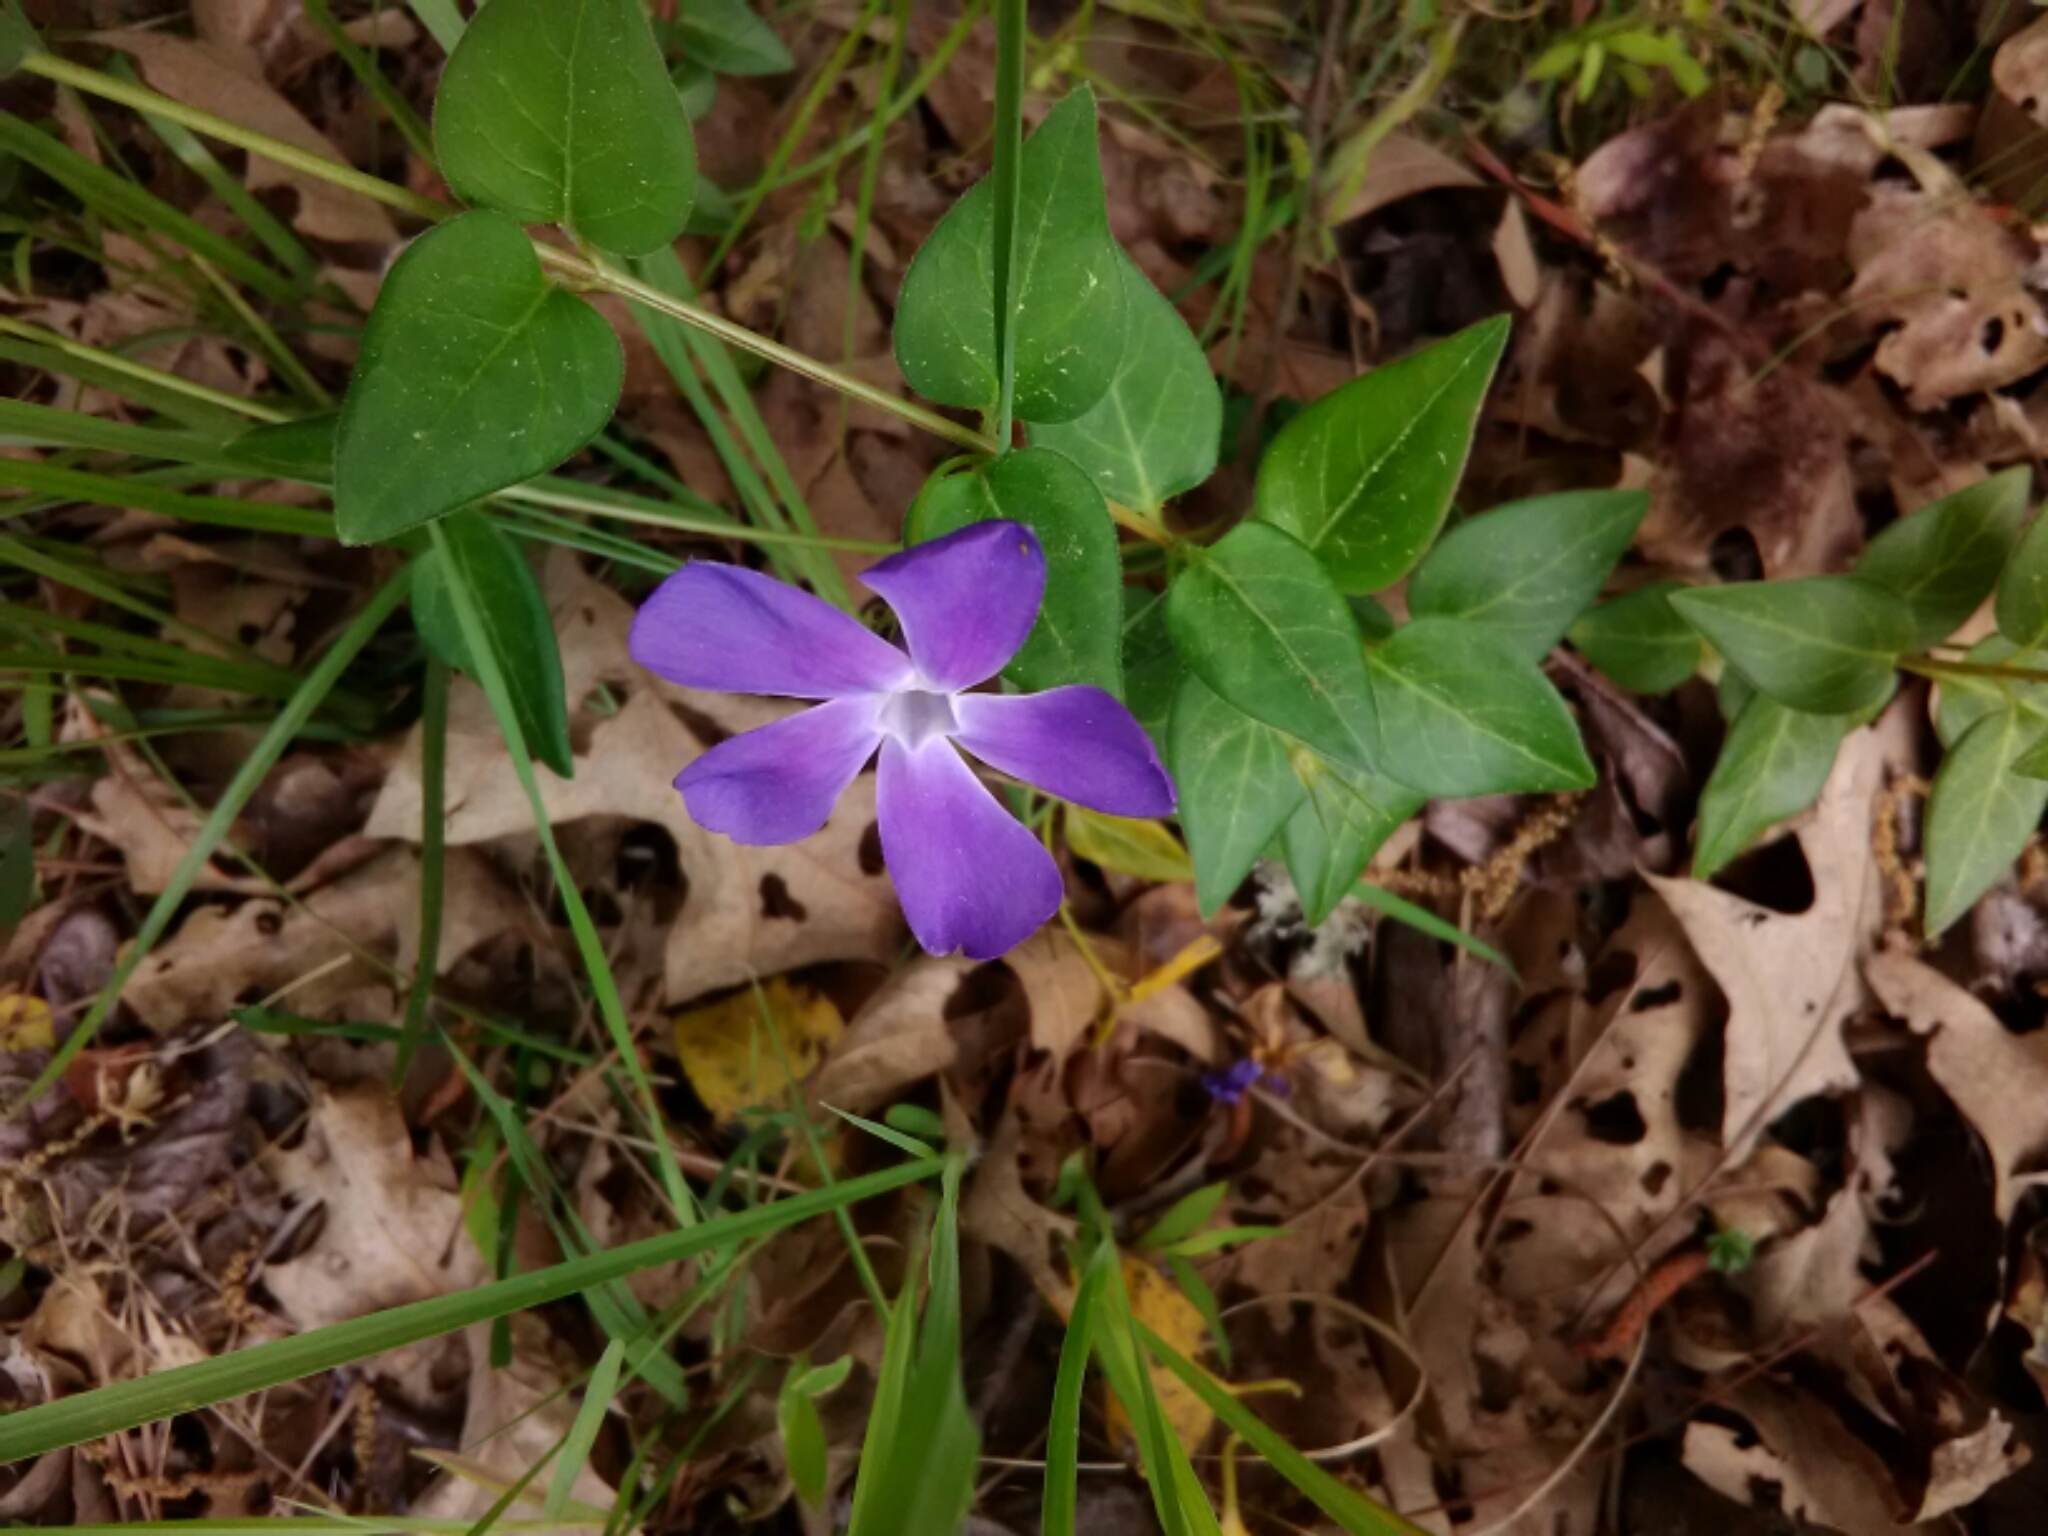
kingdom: Plantae
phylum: Tracheophyta
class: Magnoliopsida
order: Gentianales
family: Apocynaceae
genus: Vinca
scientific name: Vinca major
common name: Greater periwinkle
